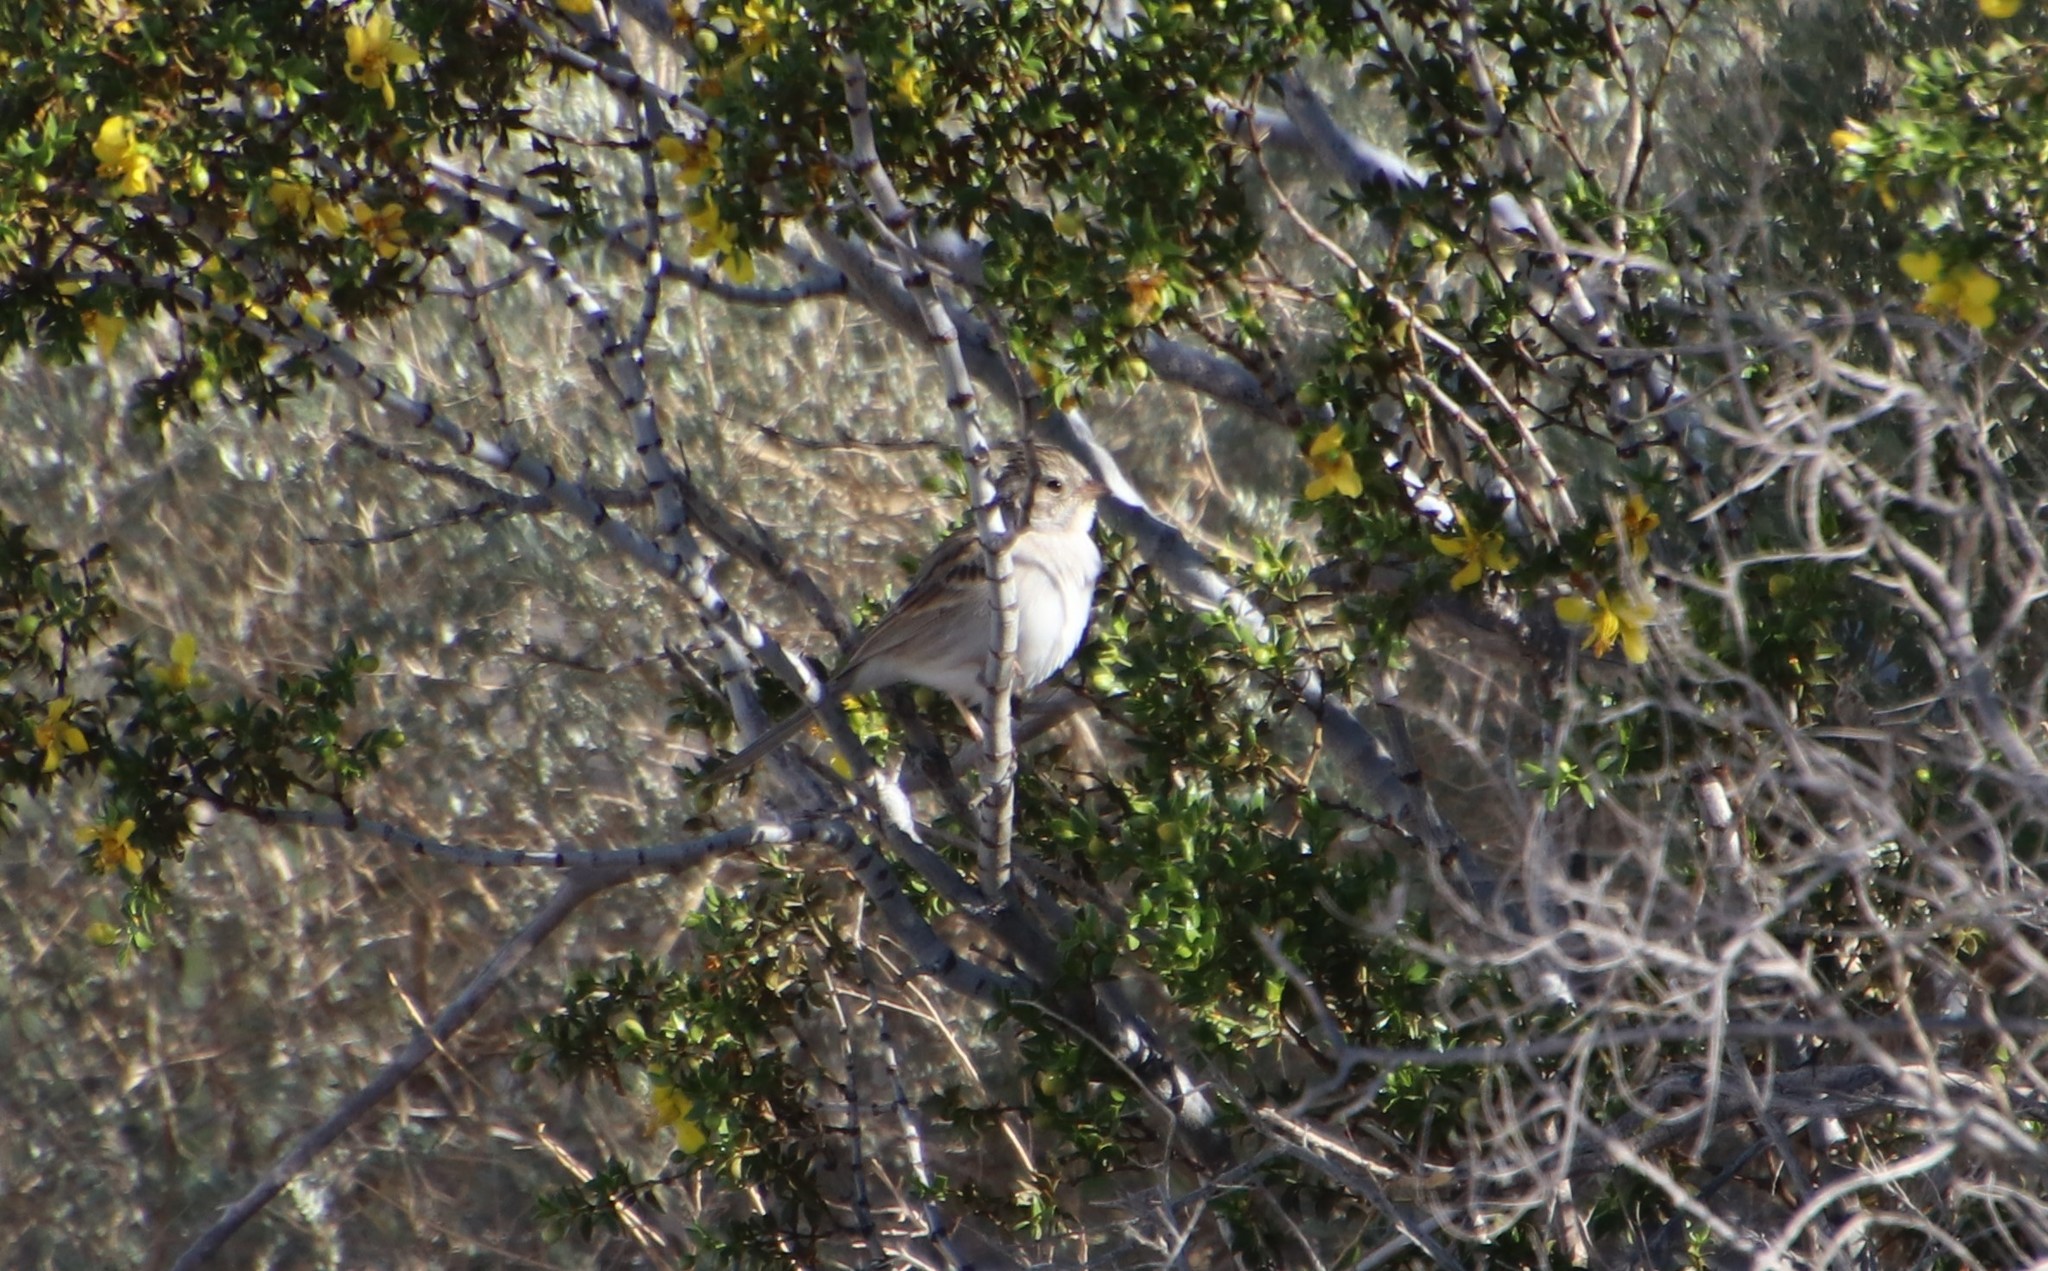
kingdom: Animalia
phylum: Chordata
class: Aves
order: Passeriformes
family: Passerellidae
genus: Spizella
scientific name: Spizella breweri
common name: Brewer's sparrow
